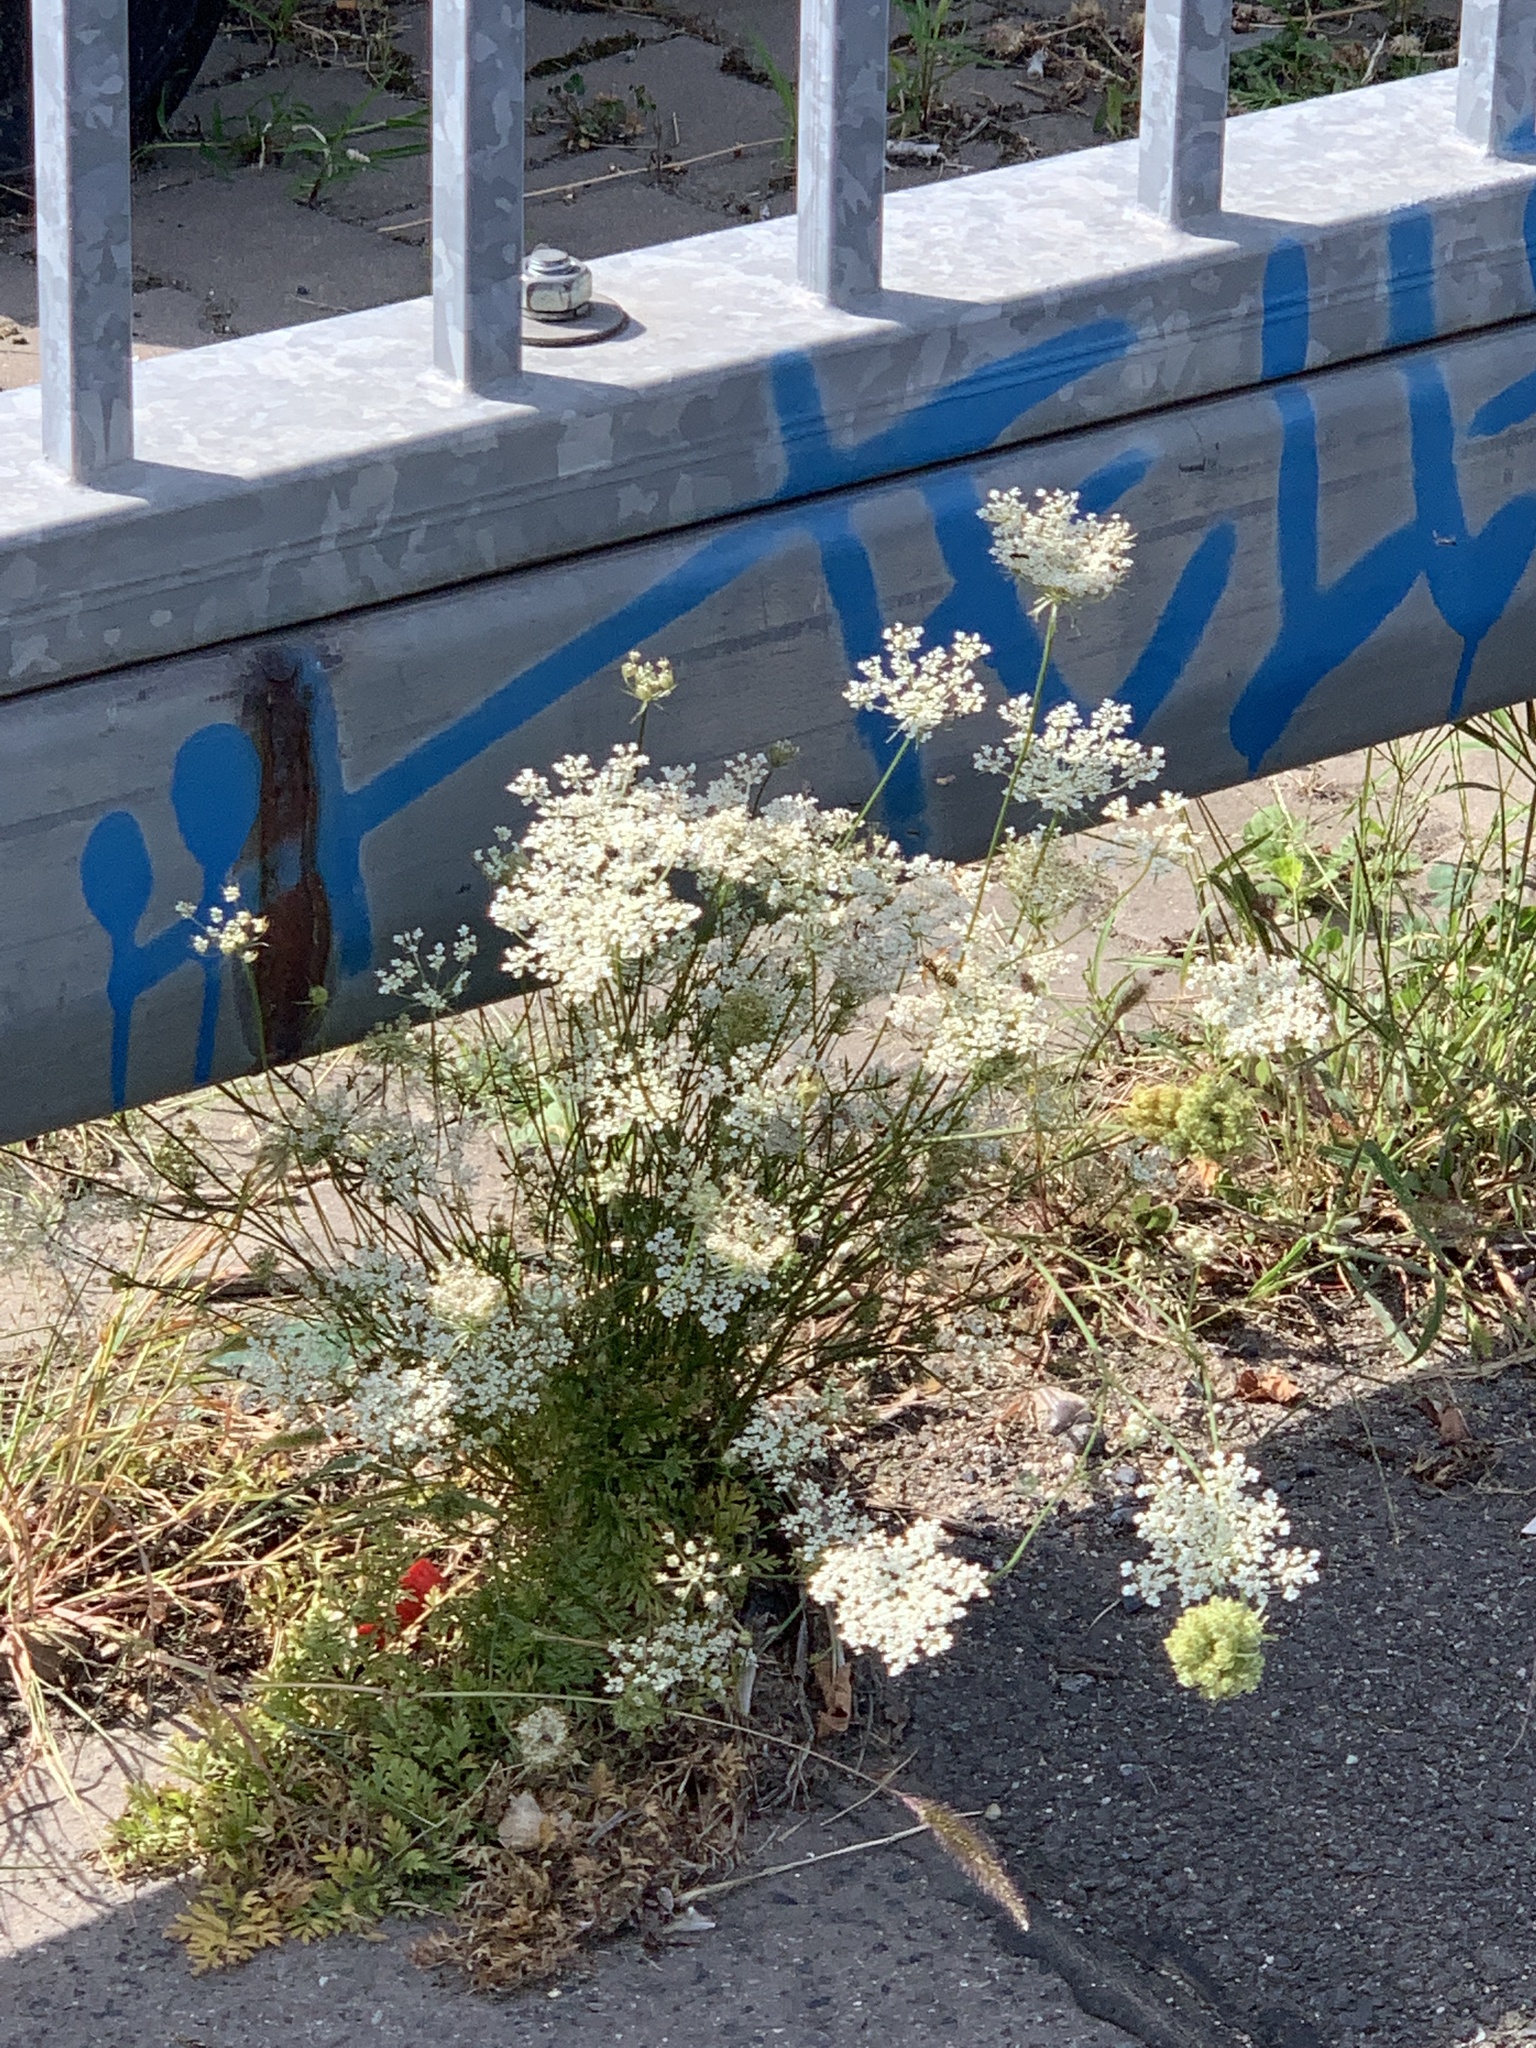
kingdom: Plantae
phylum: Tracheophyta
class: Magnoliopsida
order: Apiales
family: Apiaceae
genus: Daucus
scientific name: Daucus carota
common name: Wild carrot
